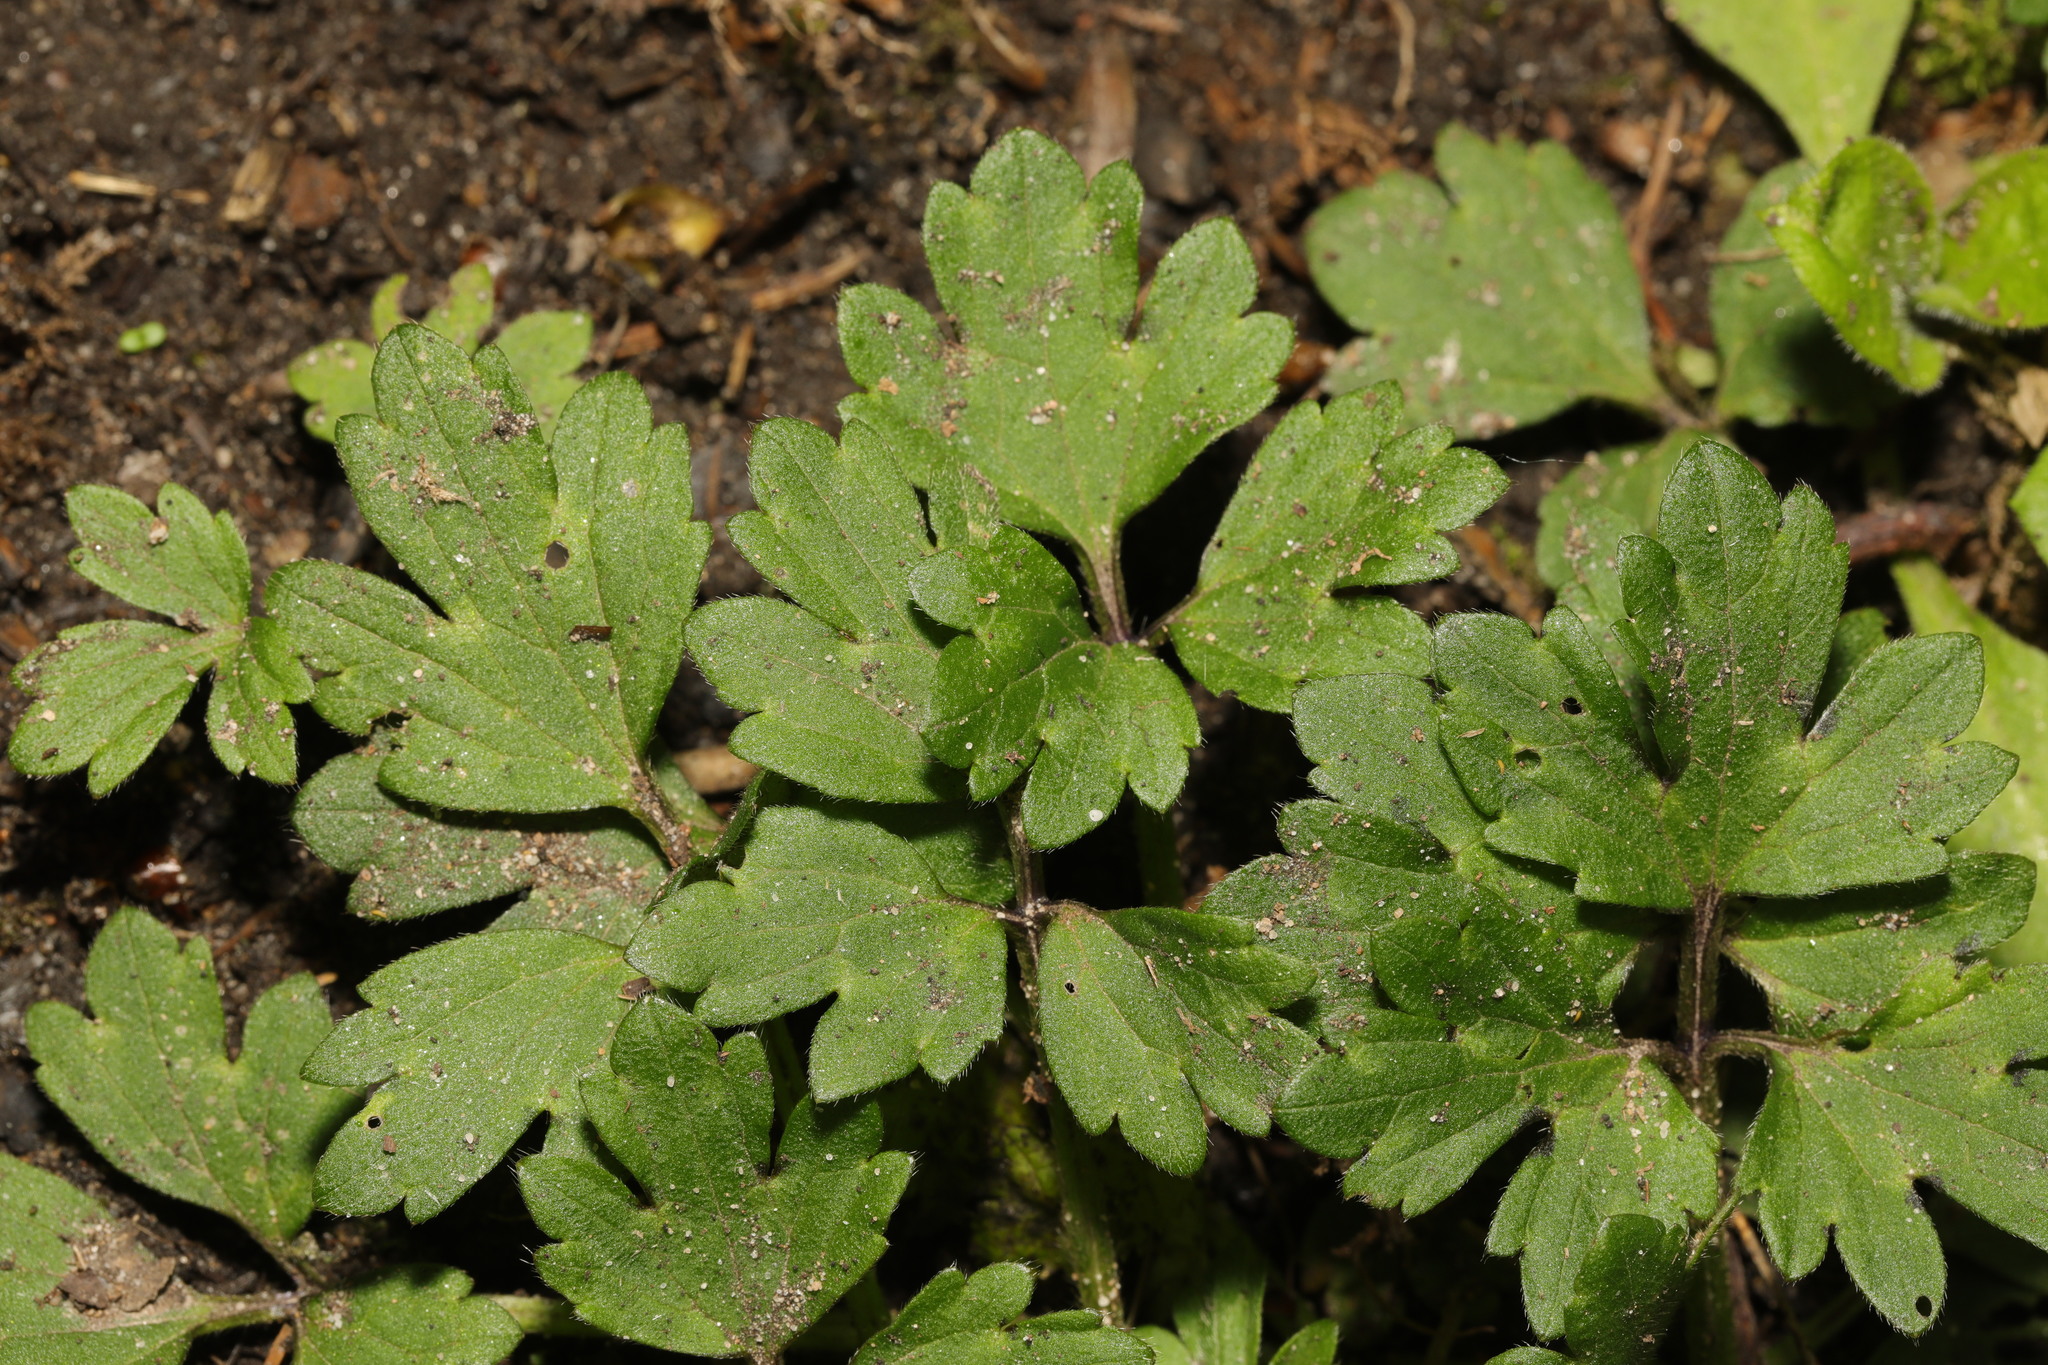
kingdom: Plantae
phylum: Tracheophyta
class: Magnoliopsida
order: Ranunculales
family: Ranunculaceae
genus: Ranunculus
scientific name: Ranunculus repens
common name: Creeping buttercup
